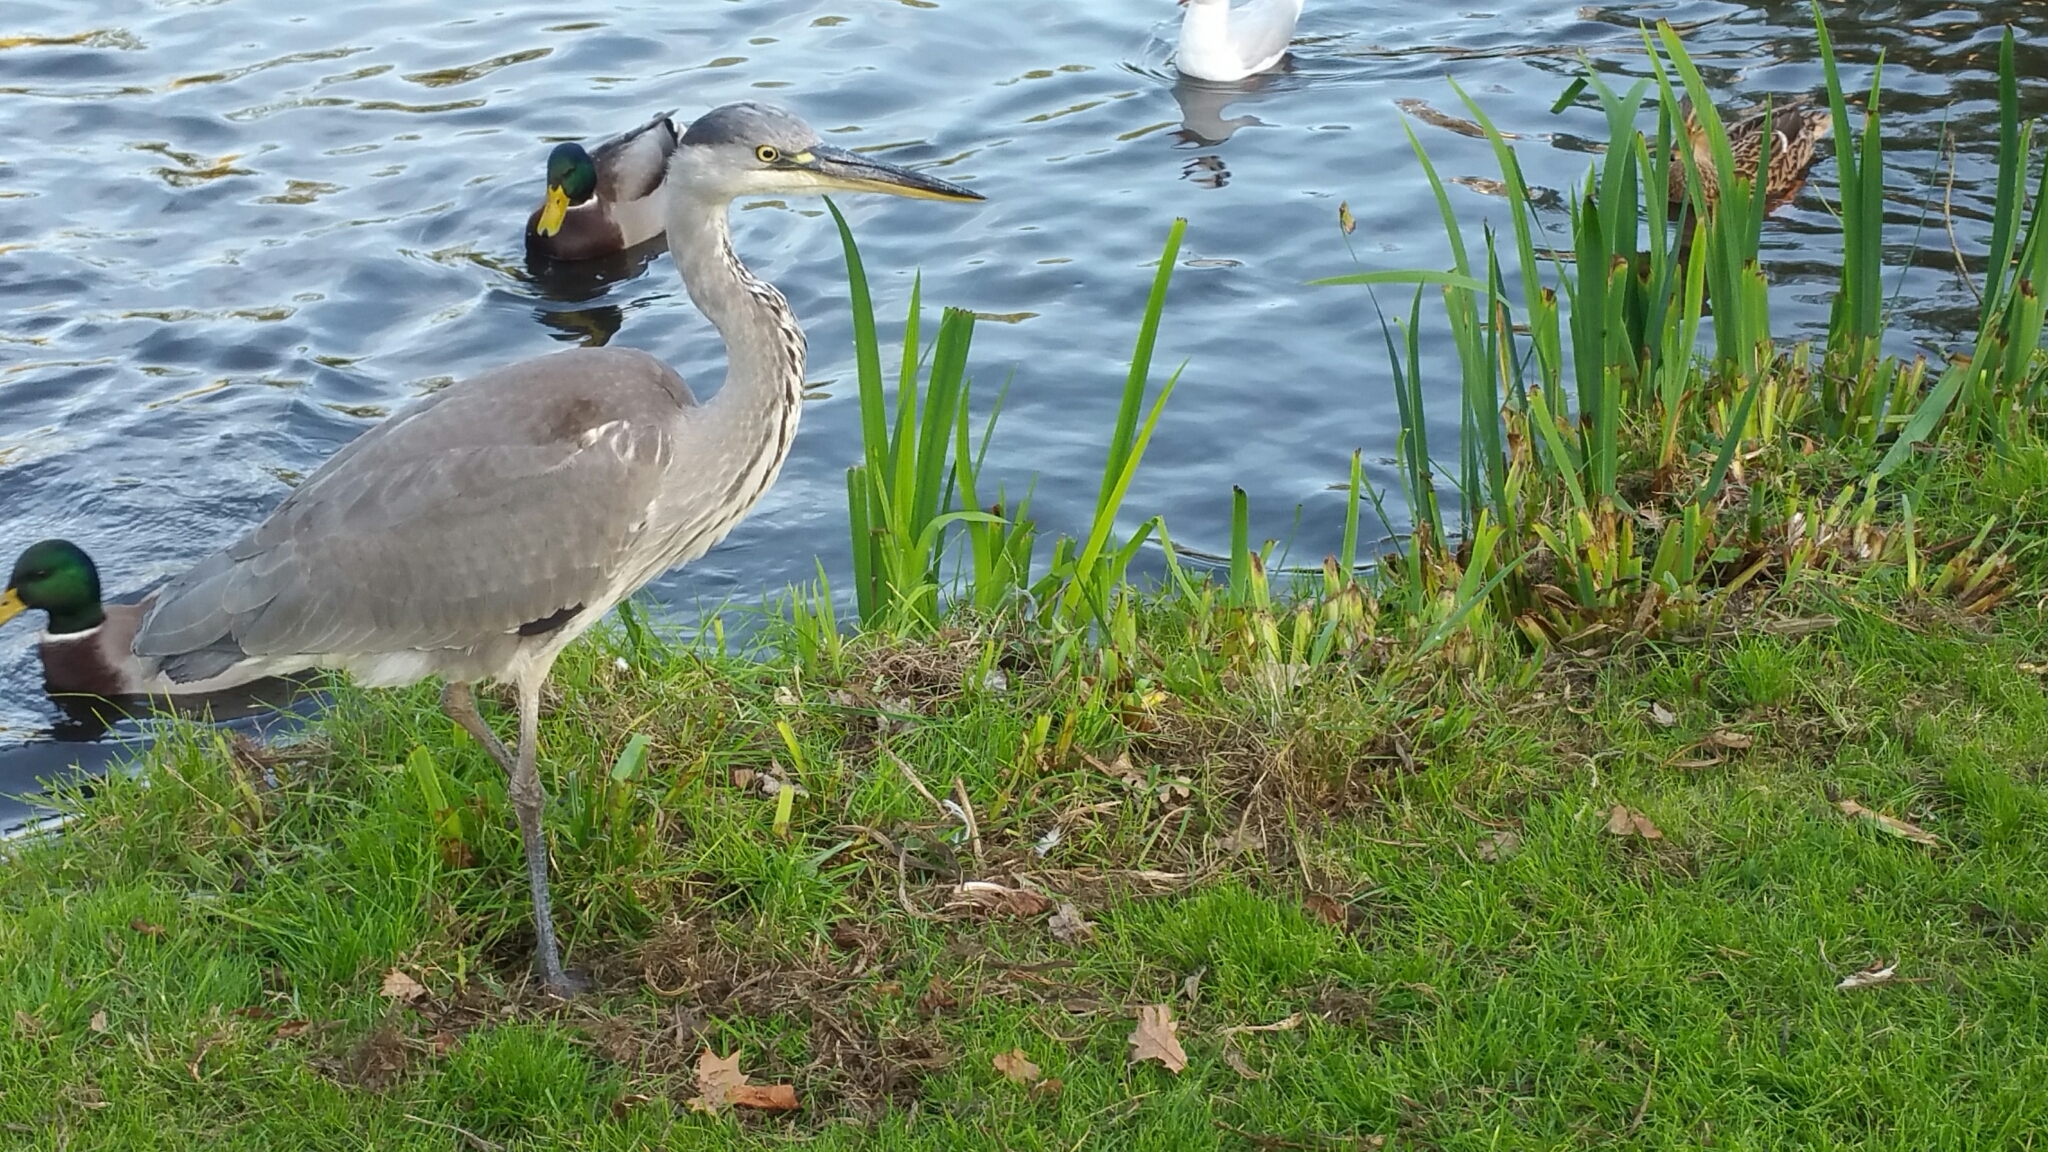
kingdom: Animalia
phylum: Chordata
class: Aves
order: Pelecaniformes
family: Ardeidae
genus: Ardea
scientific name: Ardea cinerea
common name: Grey heron
